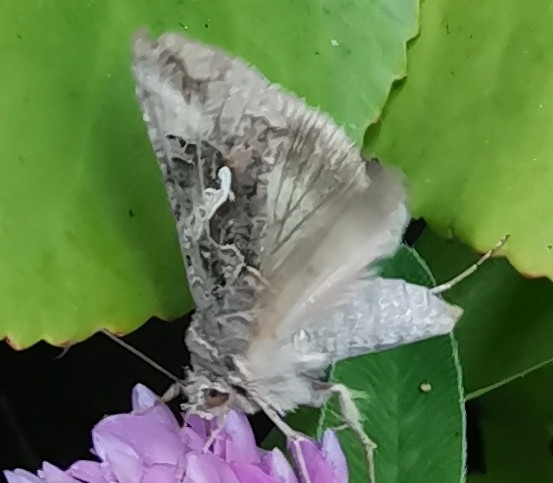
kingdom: Animalia
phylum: Arthropoda
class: Insecta
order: Lepidoptera
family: Noctuidae
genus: Autographa
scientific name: Autographa gamma
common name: Silver y
